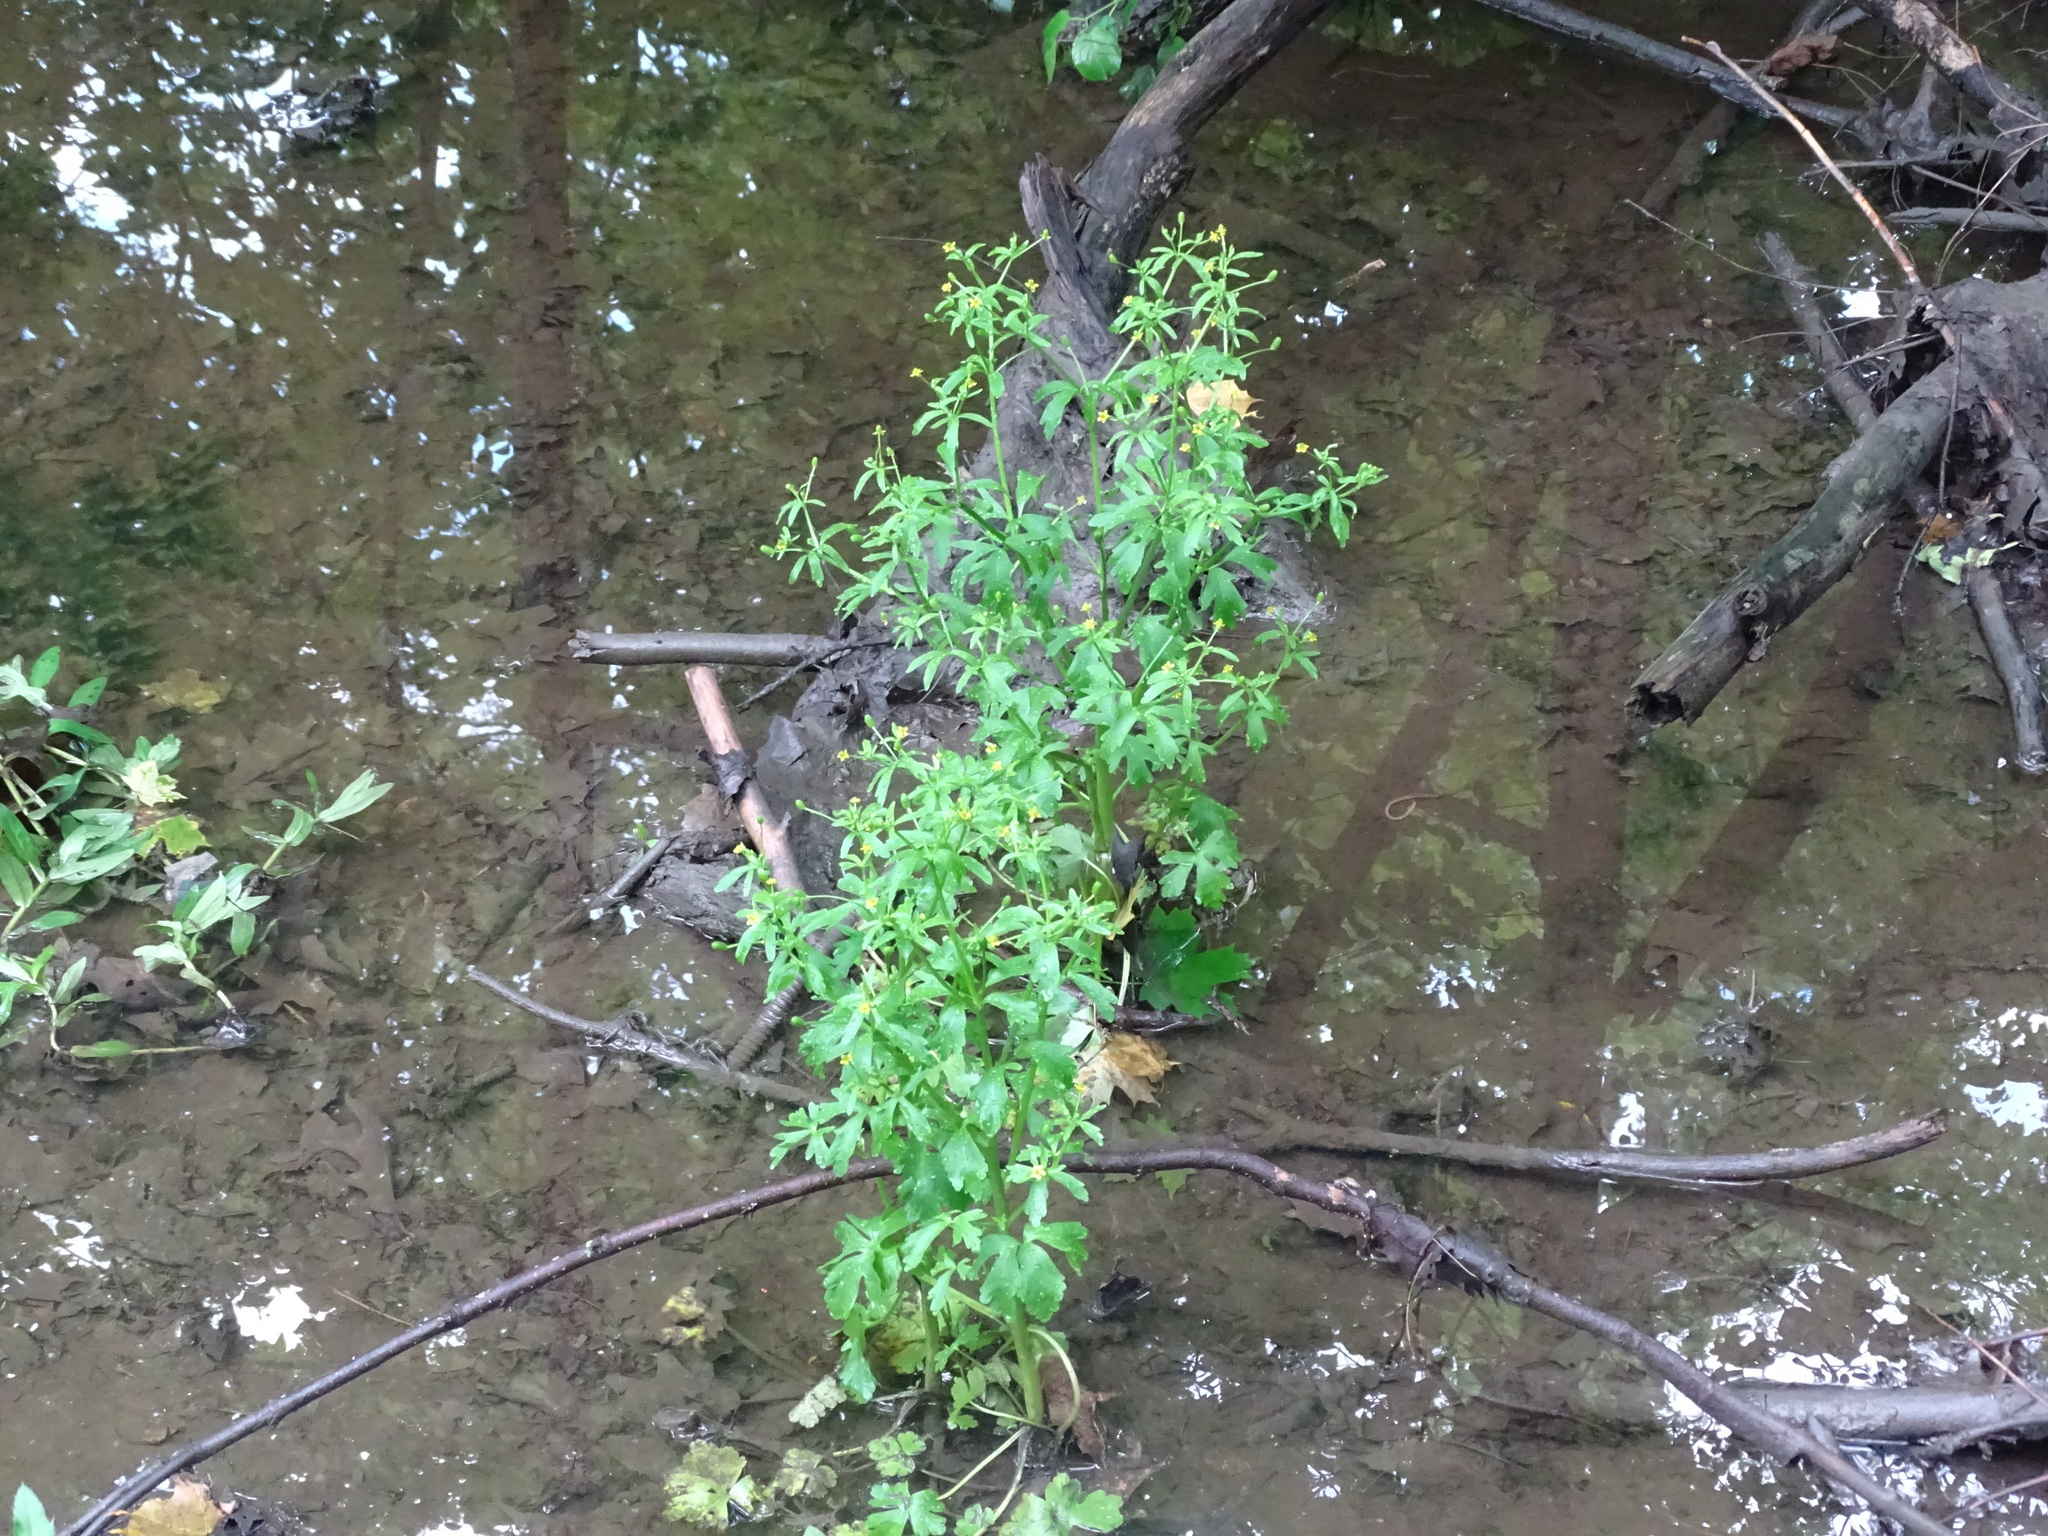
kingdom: Plantae
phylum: Tracheophyta
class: Magnoliopsida
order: Ranunculales
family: Ranunculaceae
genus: Ranunculus
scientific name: Ranunculus sceleratus
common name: Celery-leaved buttercup
